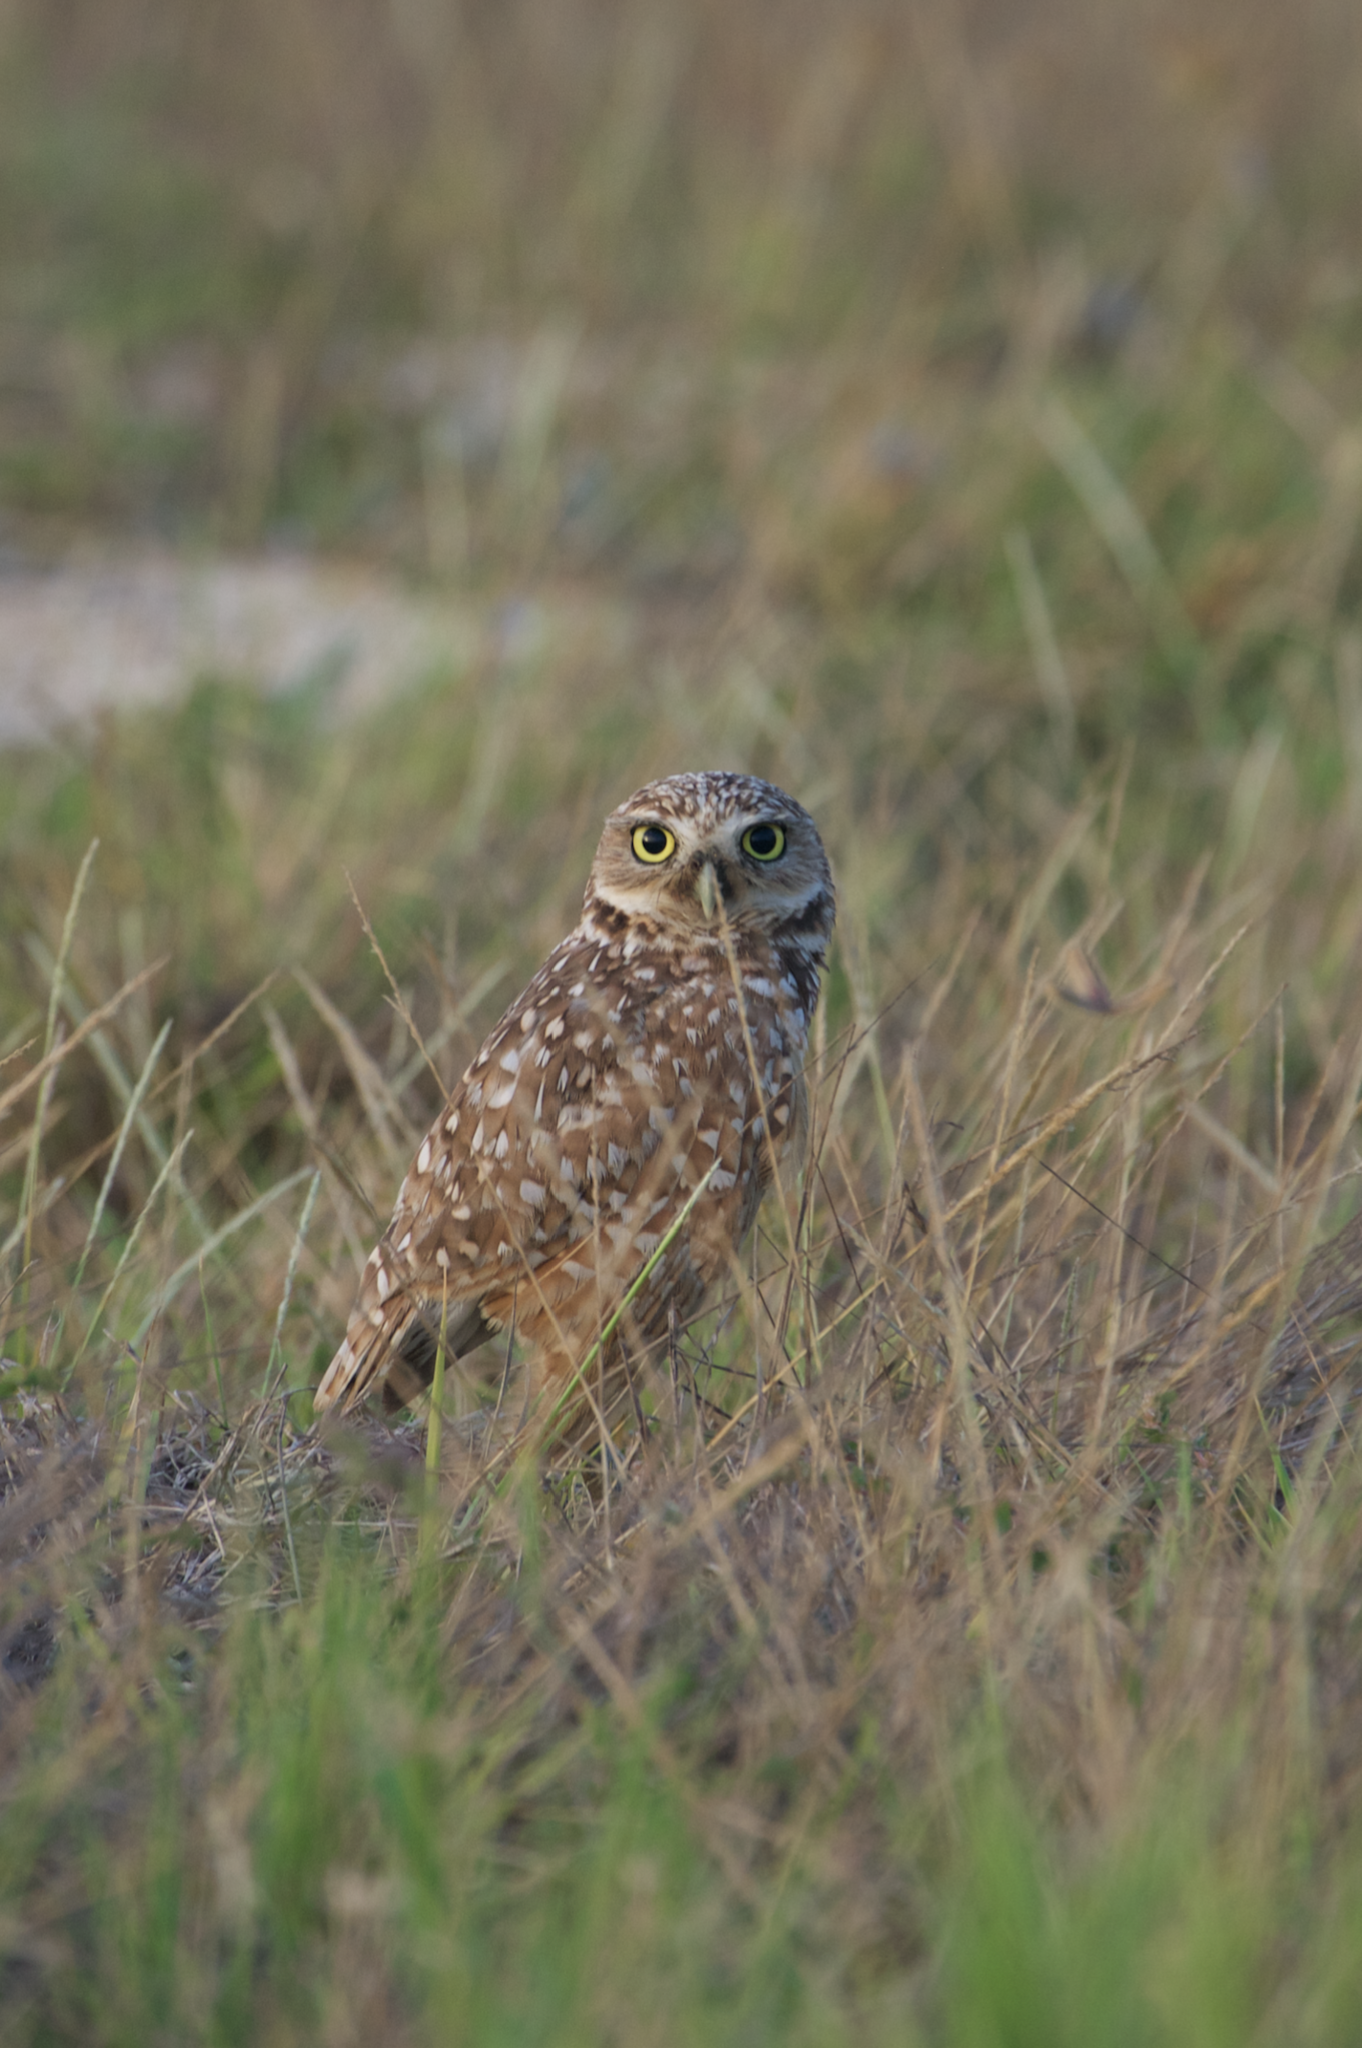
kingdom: Animalia
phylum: Chordata
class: Aves
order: Strigiformes
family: Strigidae
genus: Athene
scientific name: Athene cunicularia
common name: Burrowing owl
